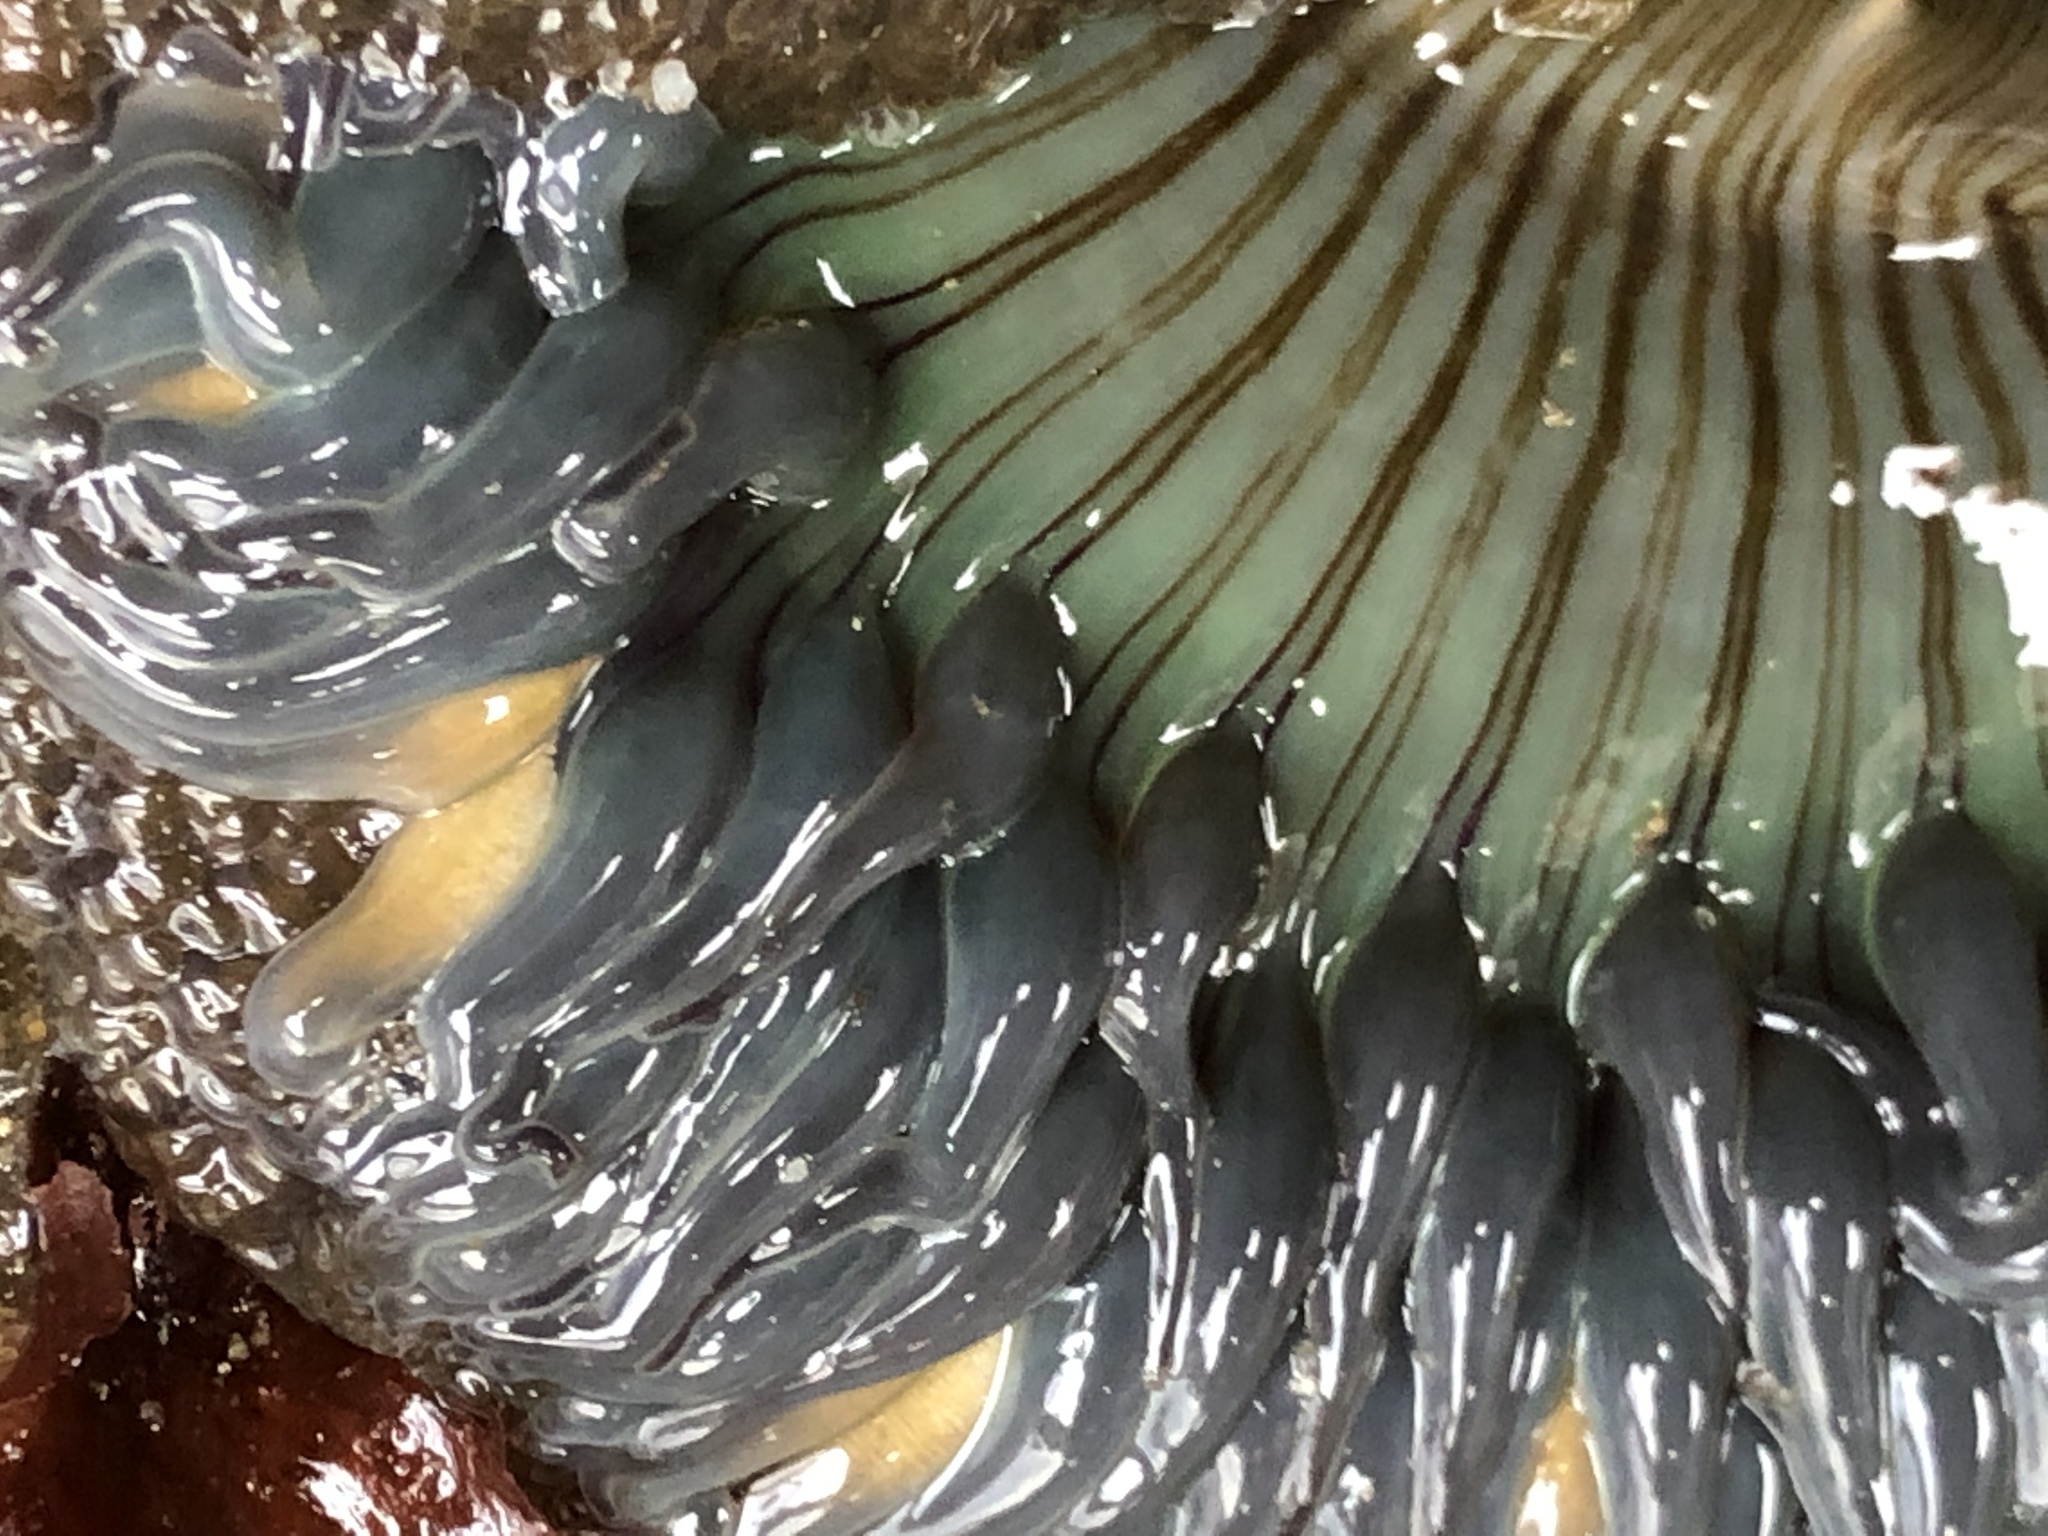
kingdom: Animalia
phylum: Cnidaria
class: Anthozoa
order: Actiniaria
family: Actiniidae
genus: Anthopleura
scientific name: Anthopleura sola
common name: Sun anemone
